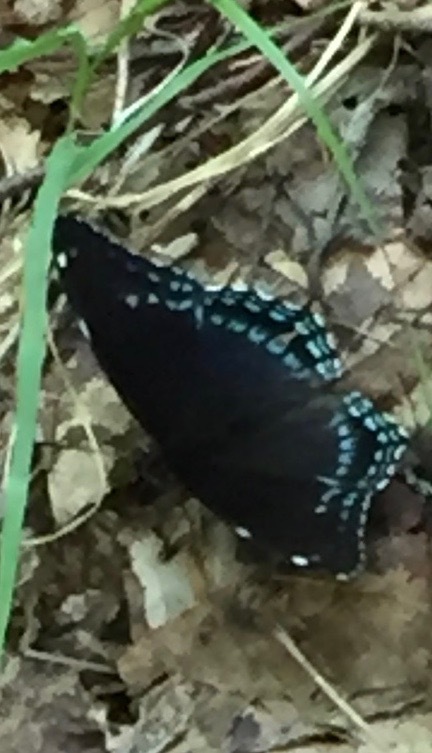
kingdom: Animalia
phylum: Arthropoda
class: Insecta
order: Lepidoptera
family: Nymphalidae
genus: Limenitis
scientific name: Limenitis arthemis
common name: Red-spotted admiral
